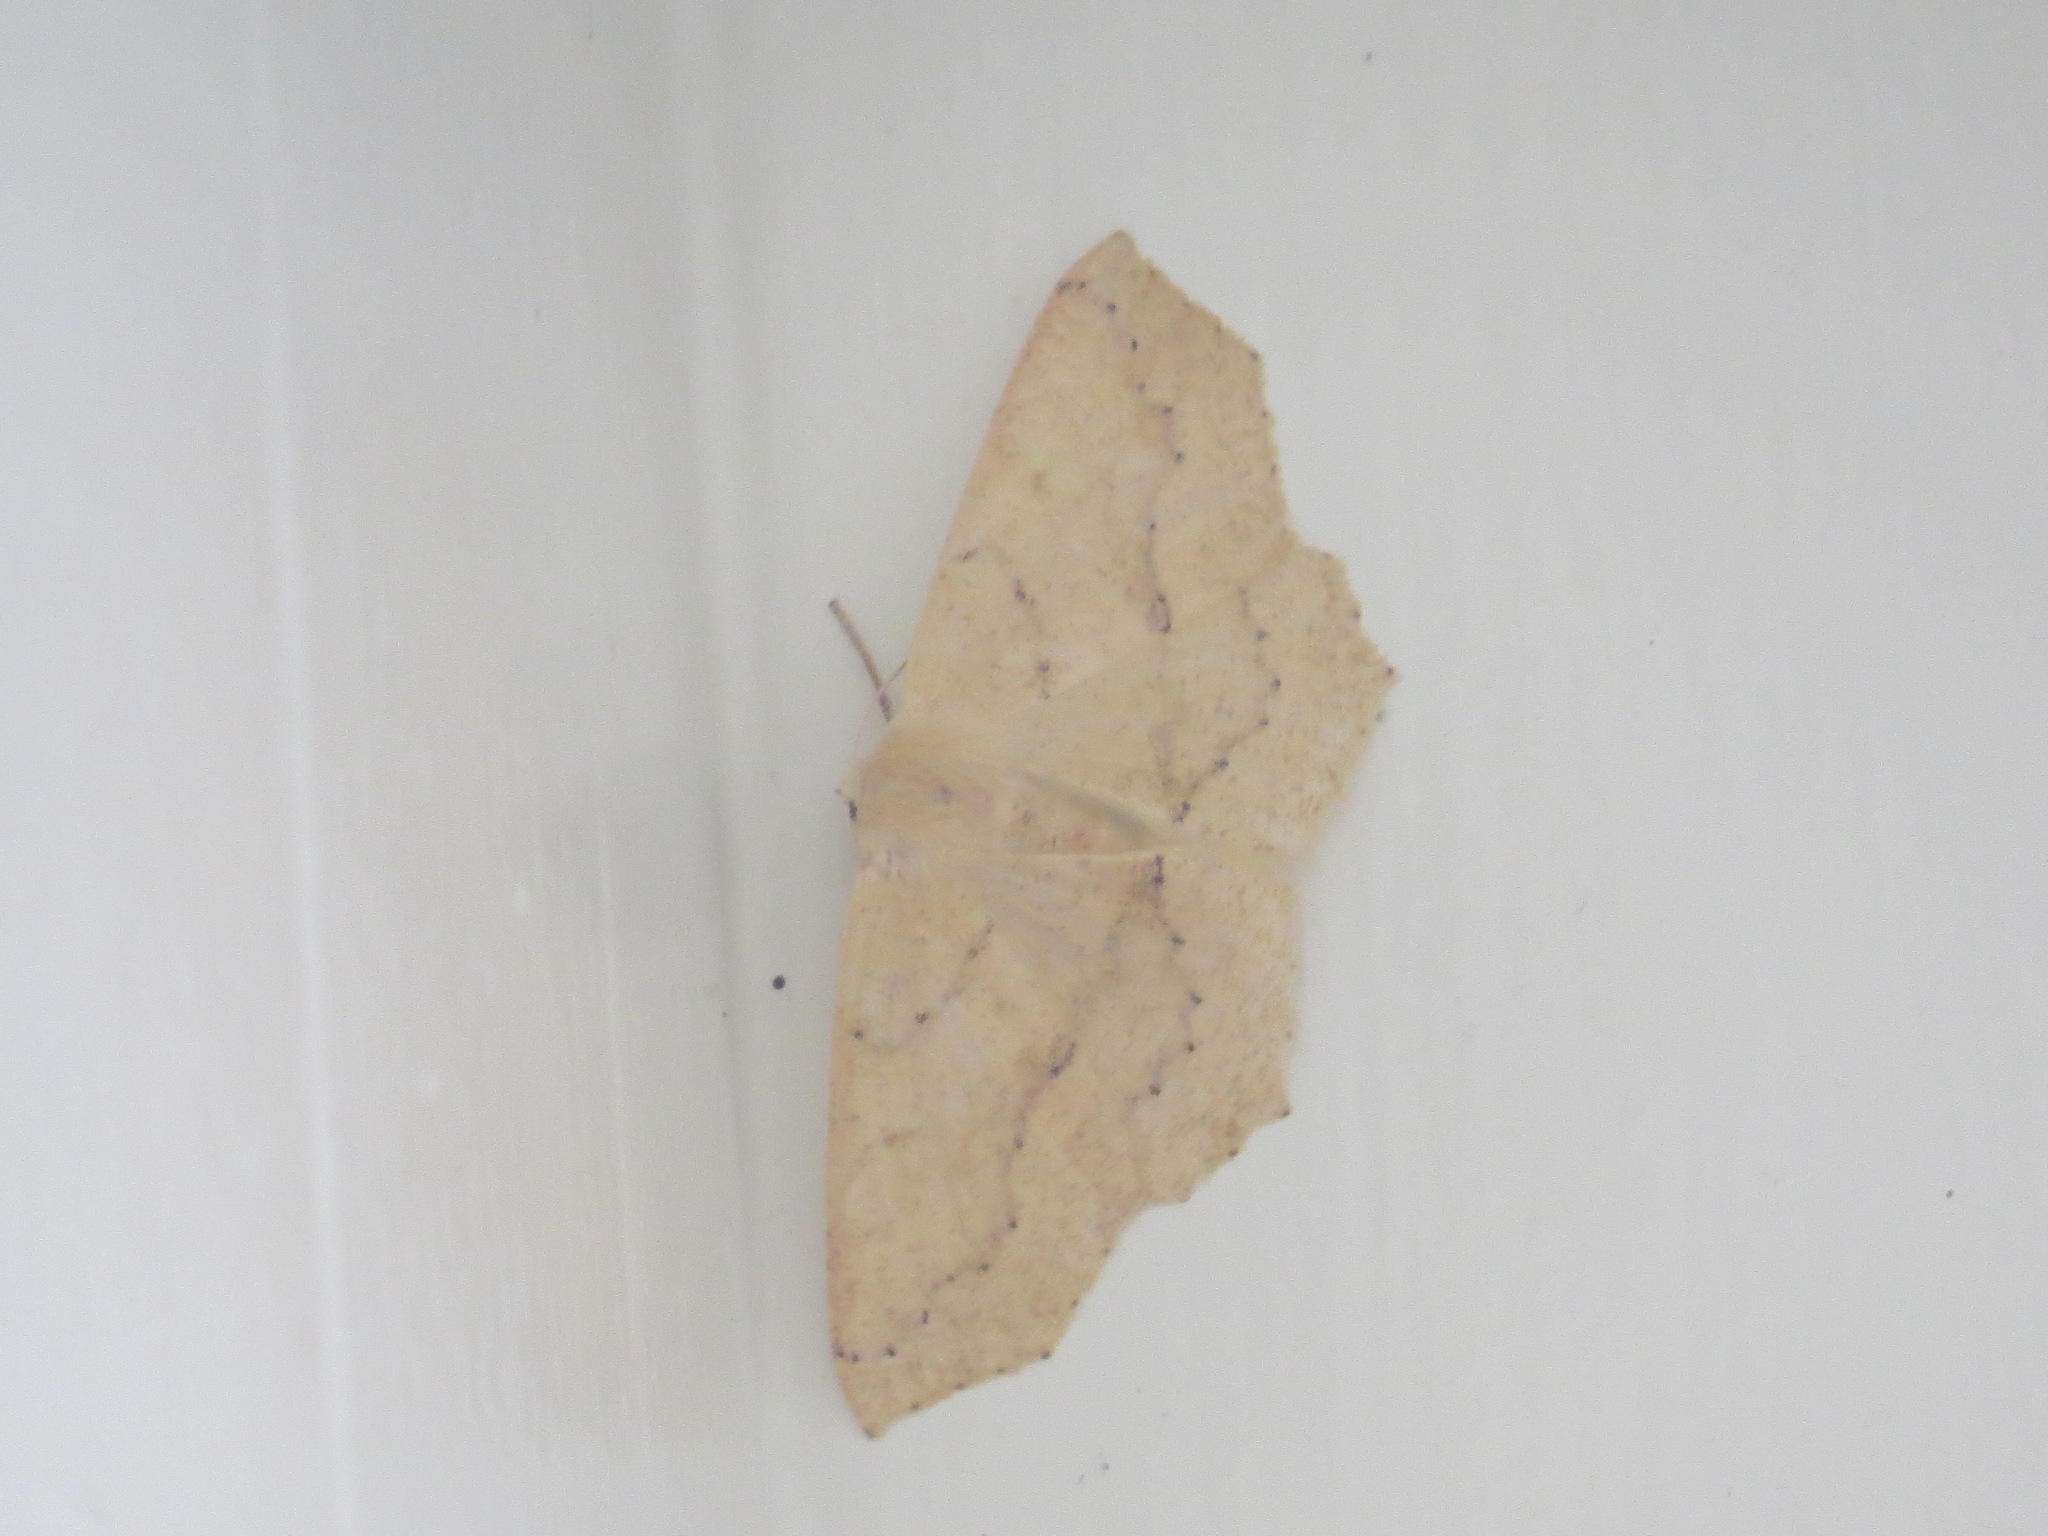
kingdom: Animalia
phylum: Arthropoda
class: Insecta
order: Lepidoptera
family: Geometridae
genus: Sabulodes
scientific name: Sabulodes aegrotata
